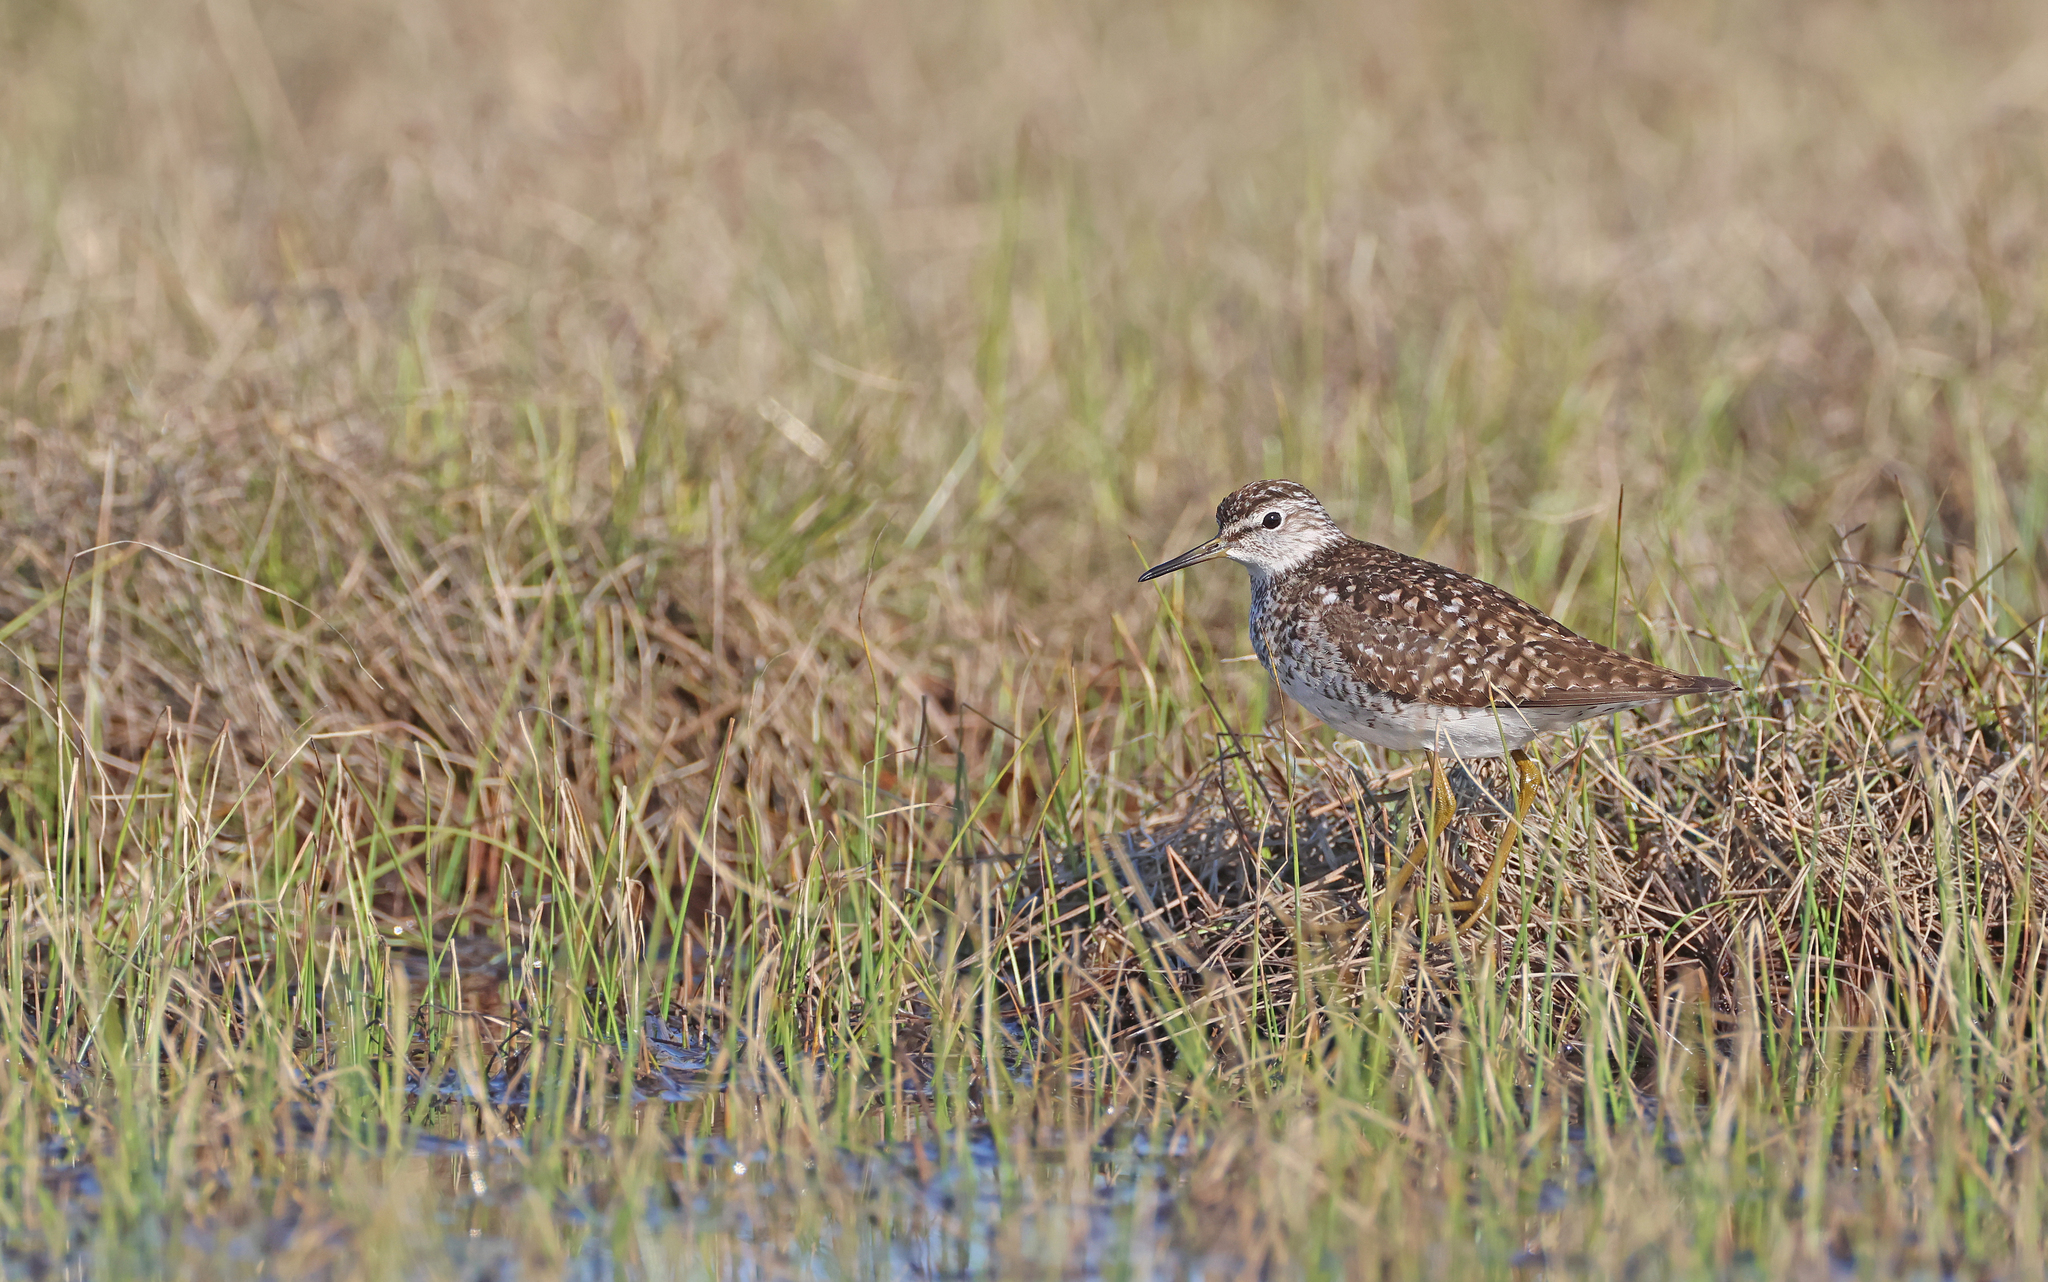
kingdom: Animalia
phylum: Chordata
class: Aves
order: Charadriiformes
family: Scolopacidae
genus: Tringa
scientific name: Tringa glareola
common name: Wood sandpiper
